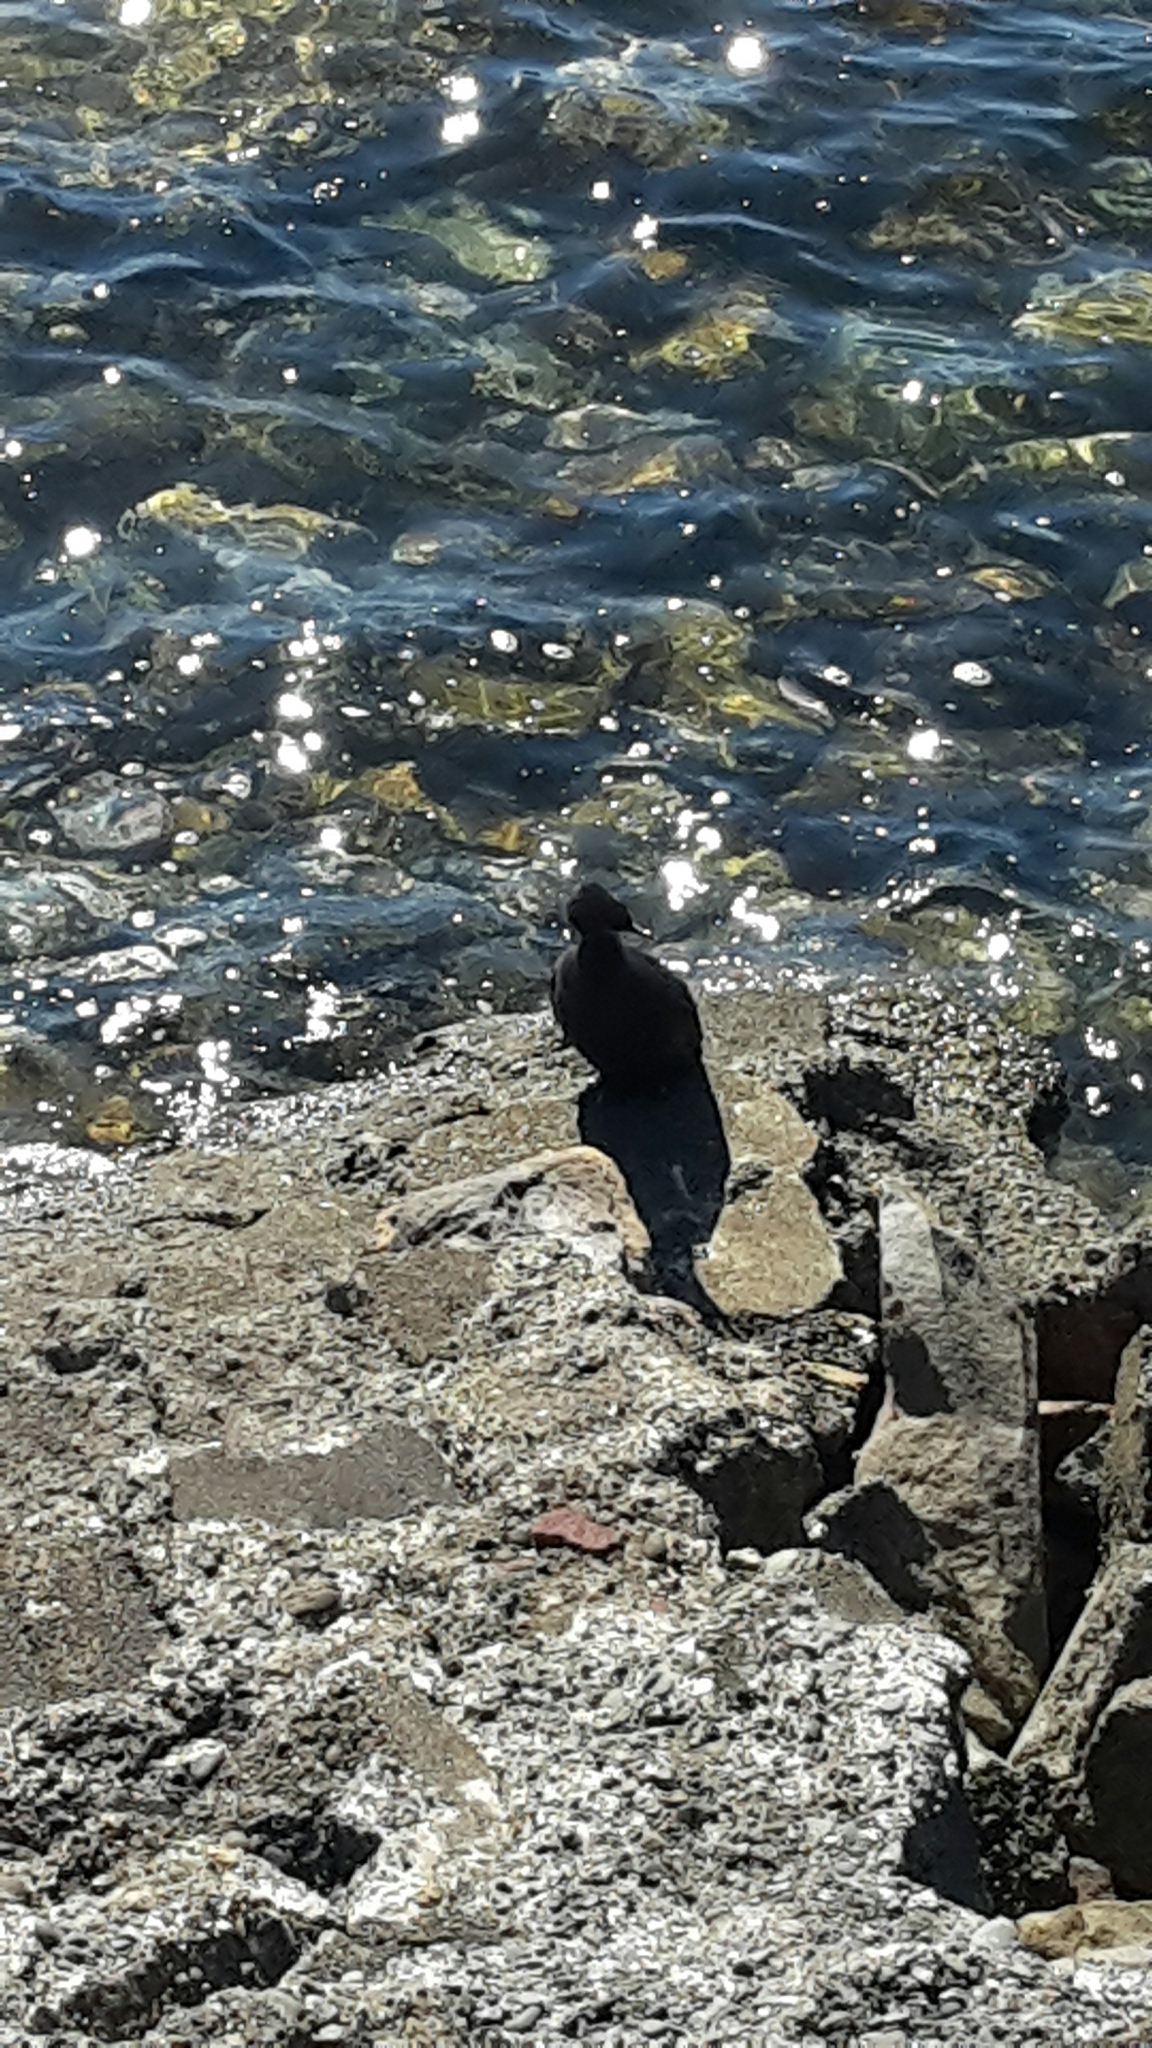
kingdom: Animalia
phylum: Chordata
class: Aves
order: Suliformes
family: Phalacrocoracidae
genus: Phalacrocorax
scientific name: Phalacrocorax sulcirostris
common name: Little black cormorant
